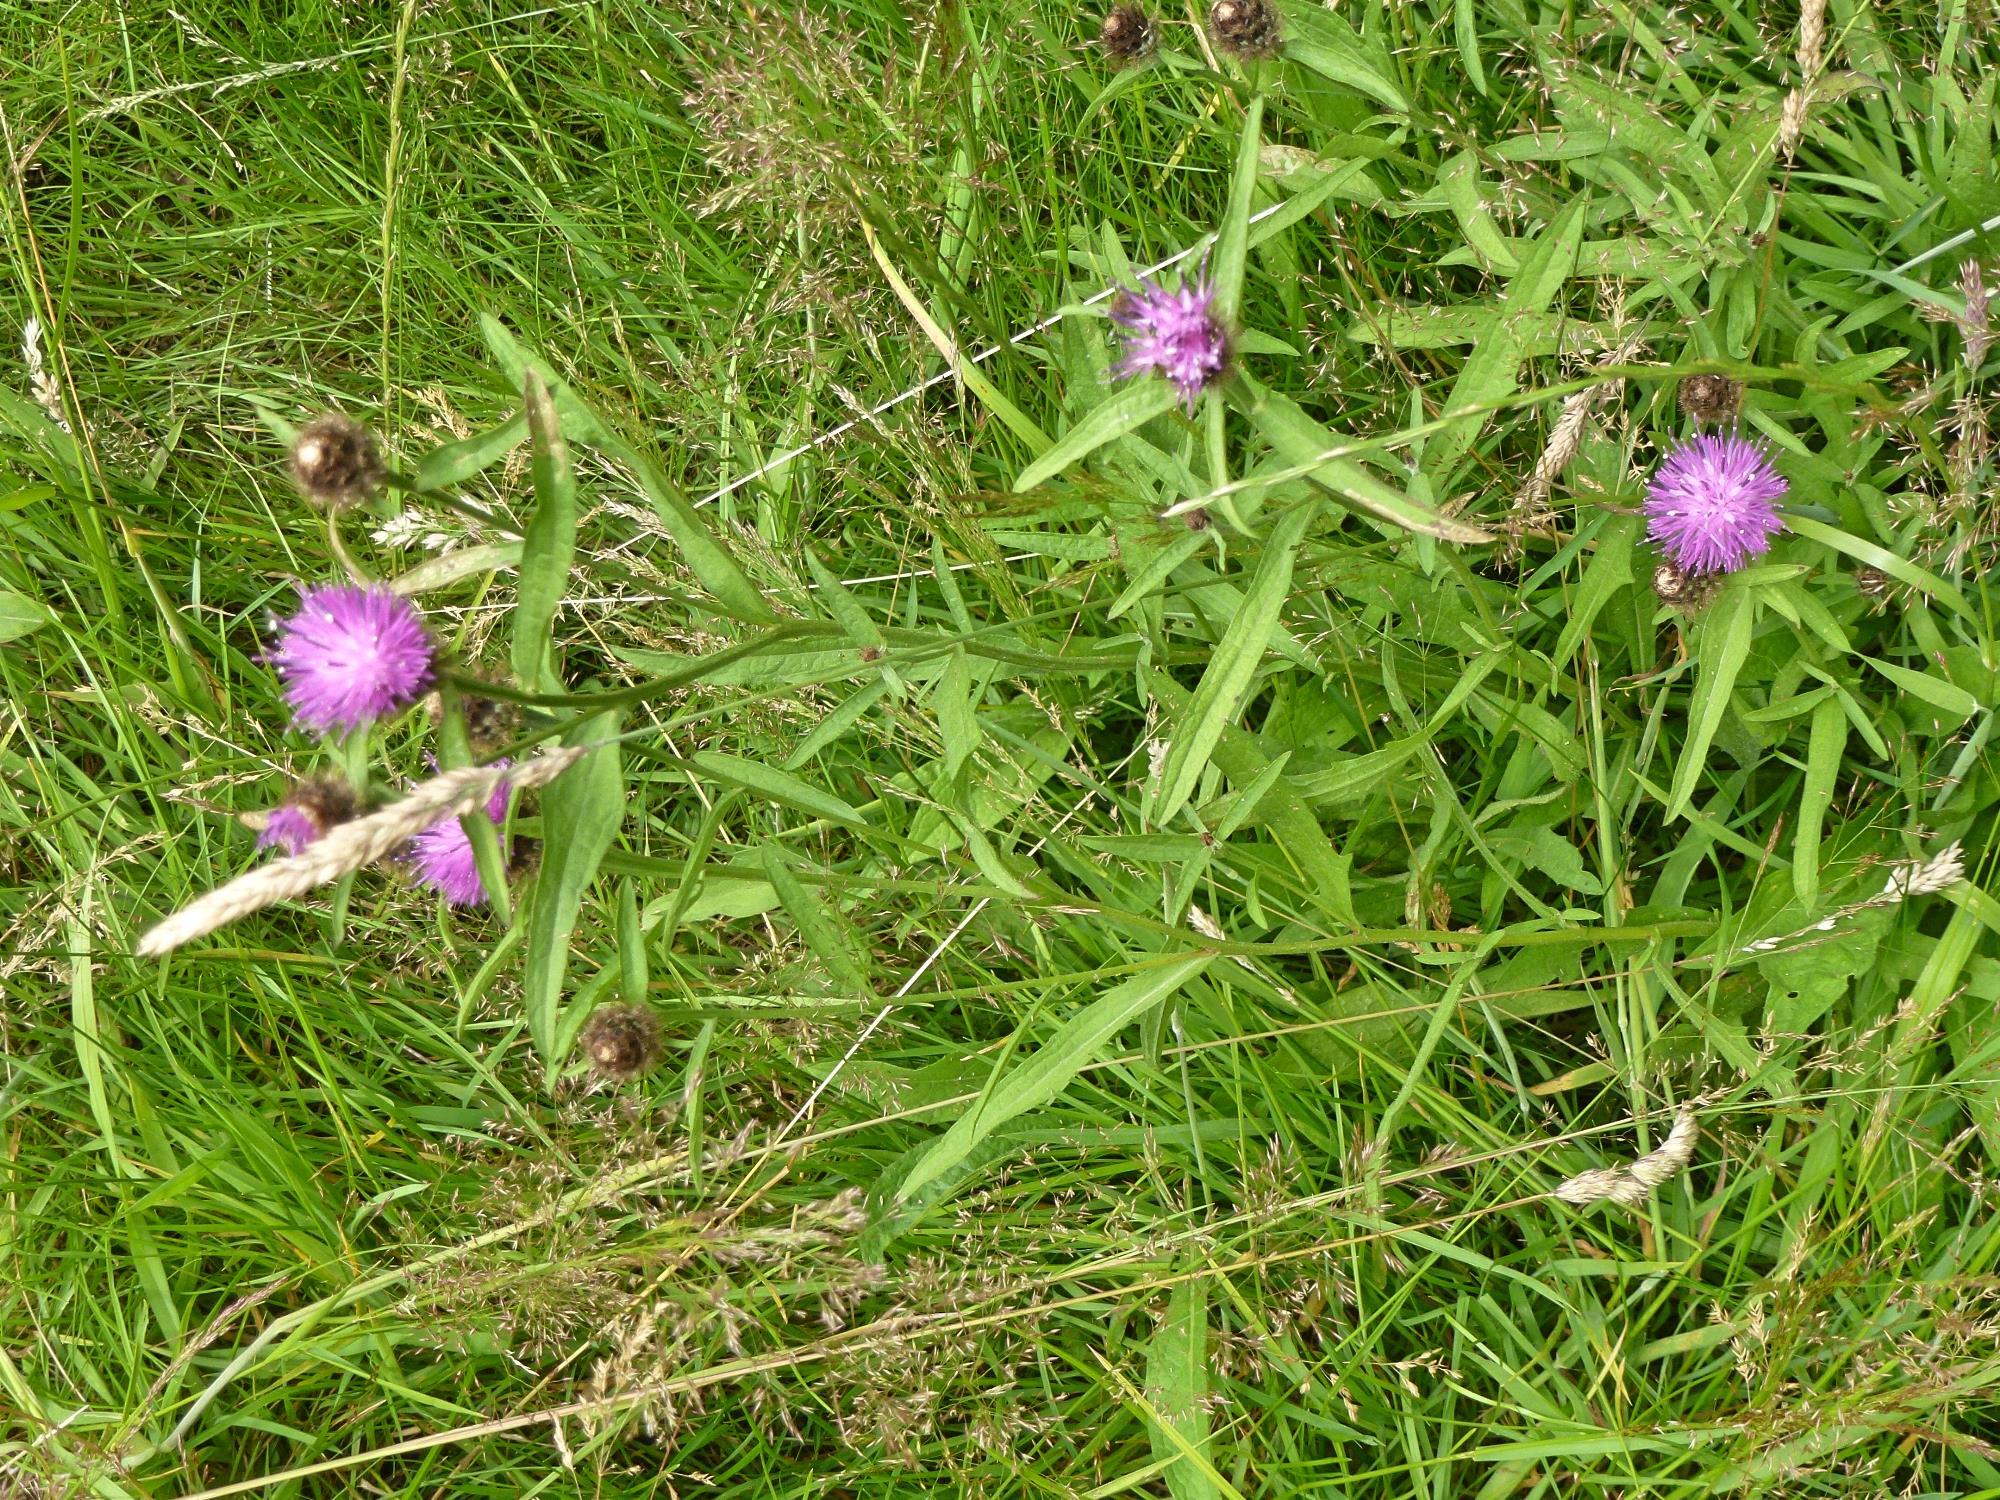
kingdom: Plantae
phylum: Tracheophyta
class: Magnoliopsida
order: Asterales
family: Asteraceae
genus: Centaurea
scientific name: Centaurea nigra
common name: Lesser knapweed
